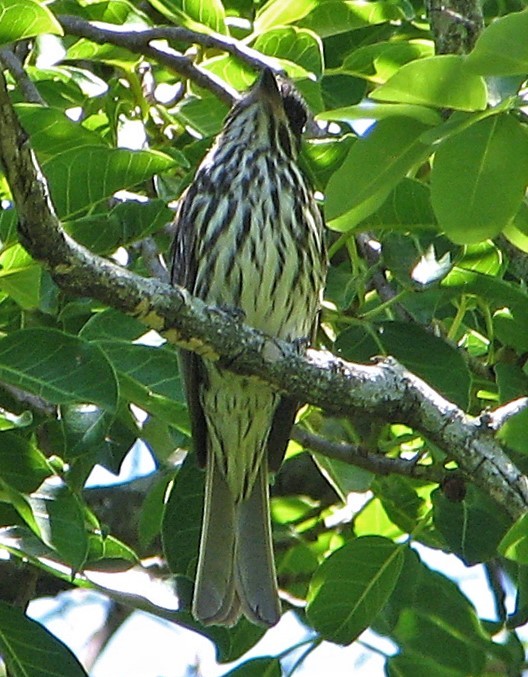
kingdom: Animalia
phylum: Chordata
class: Aves
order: Passeriformes
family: Tyrannidae
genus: Myiodynastes
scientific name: Myiodynastes maculatus
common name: Streaked flycatcher
